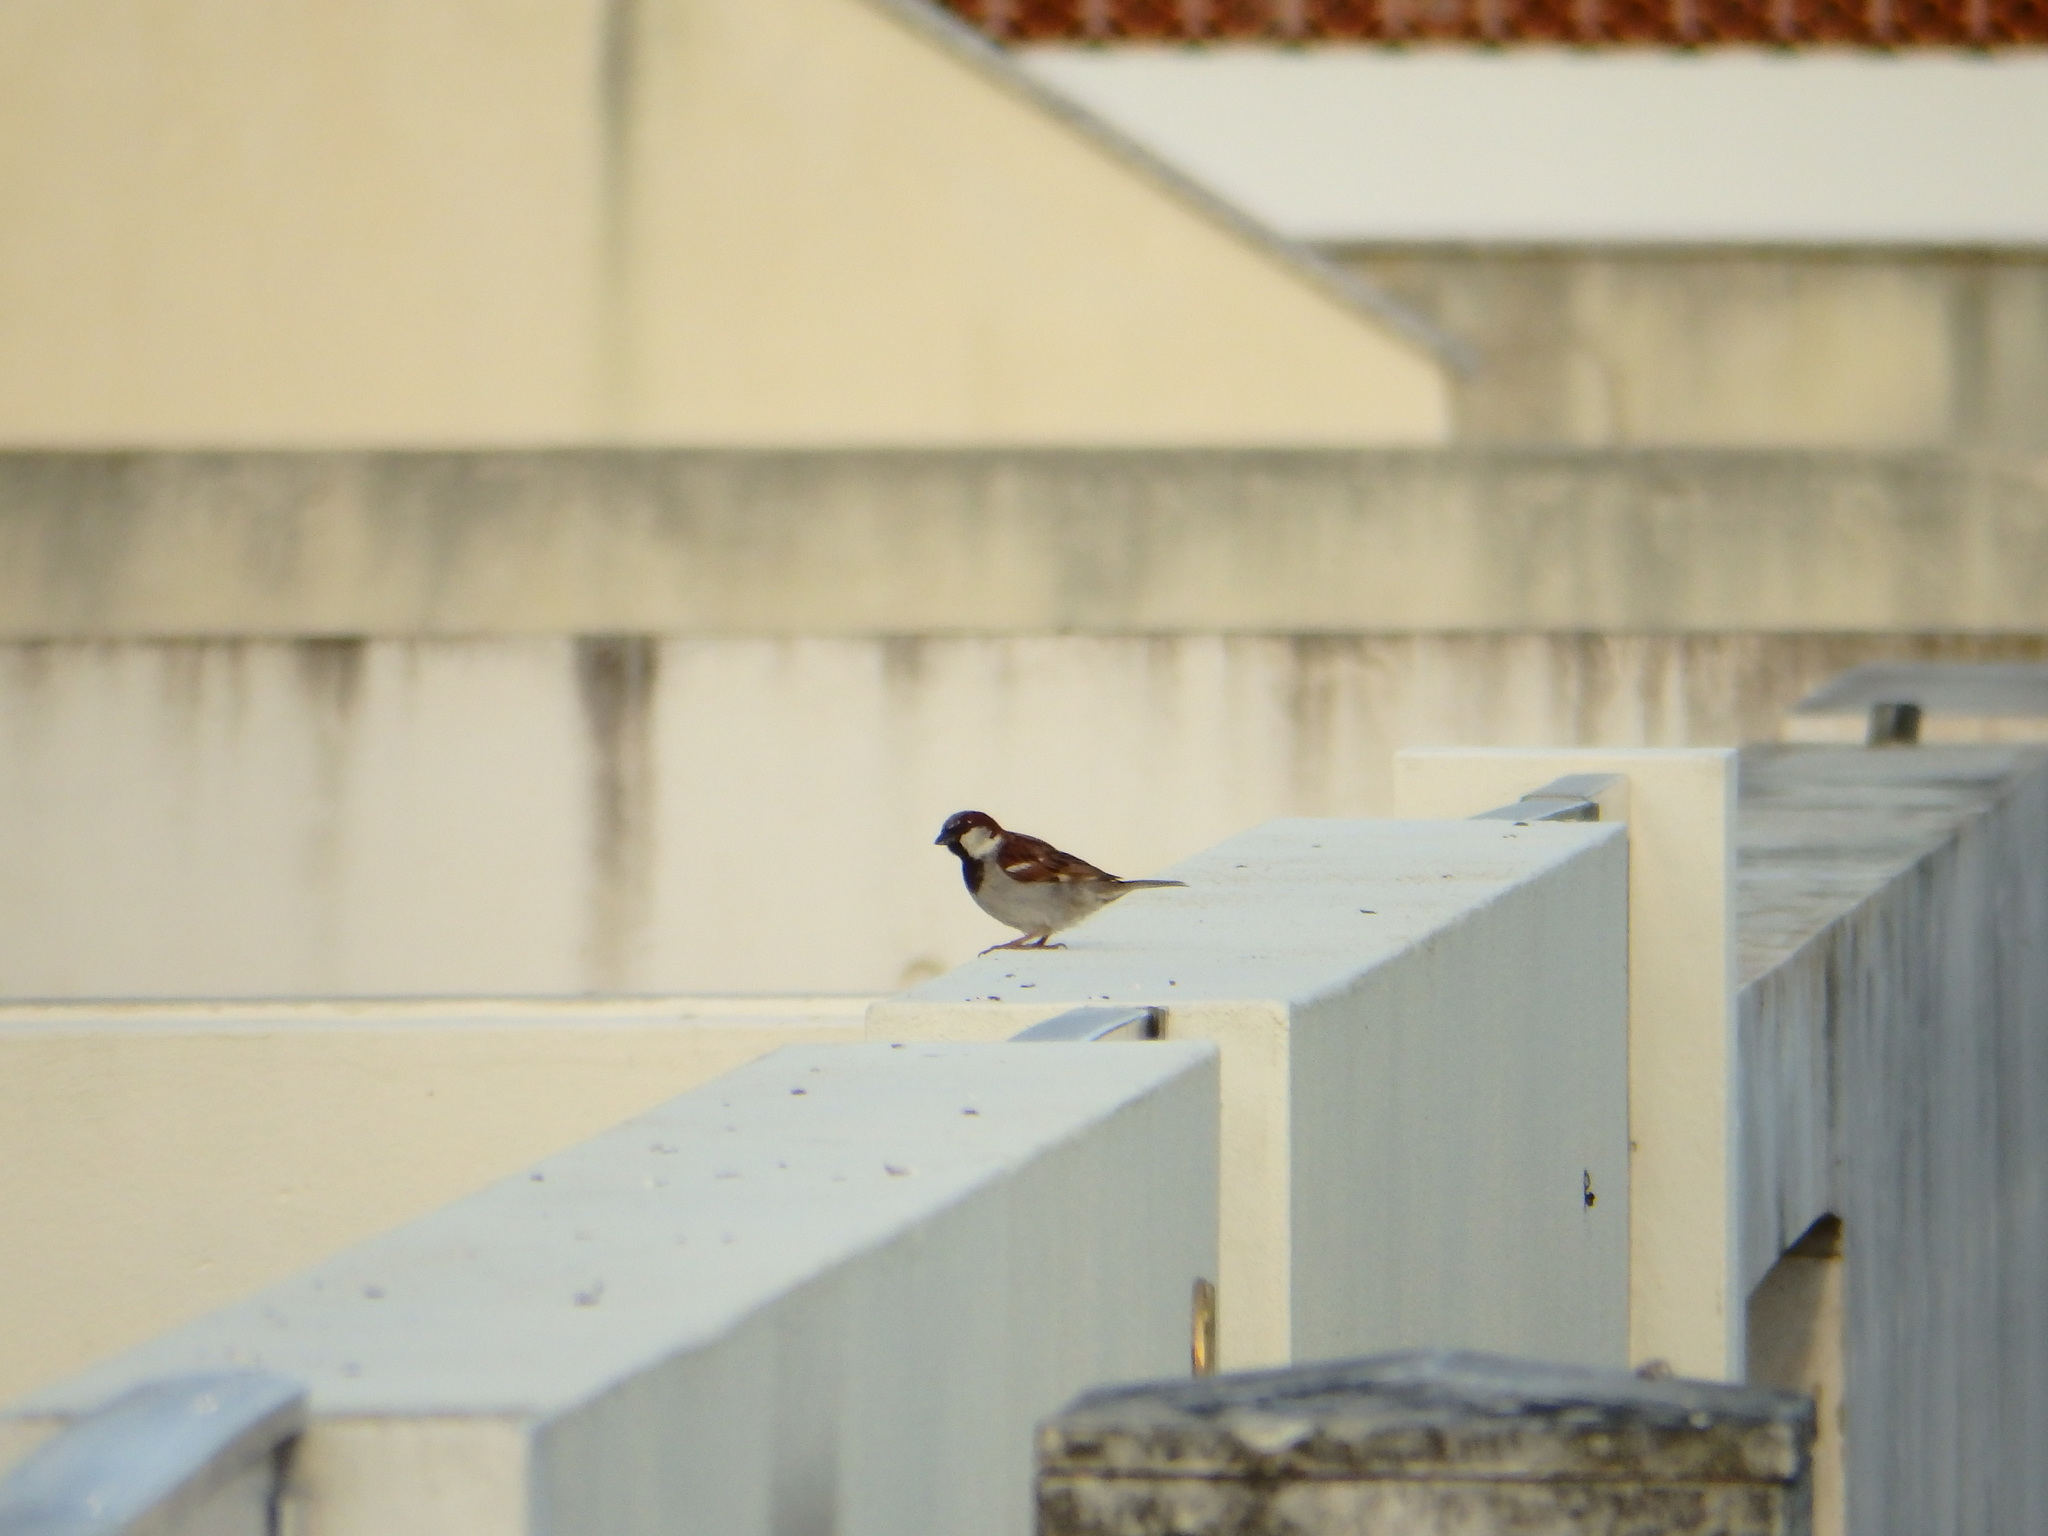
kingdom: Animalia
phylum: Chordata
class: Aves
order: Passeriformes
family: Passeridae
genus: Passer
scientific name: Passer domesticus
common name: House sparrow
